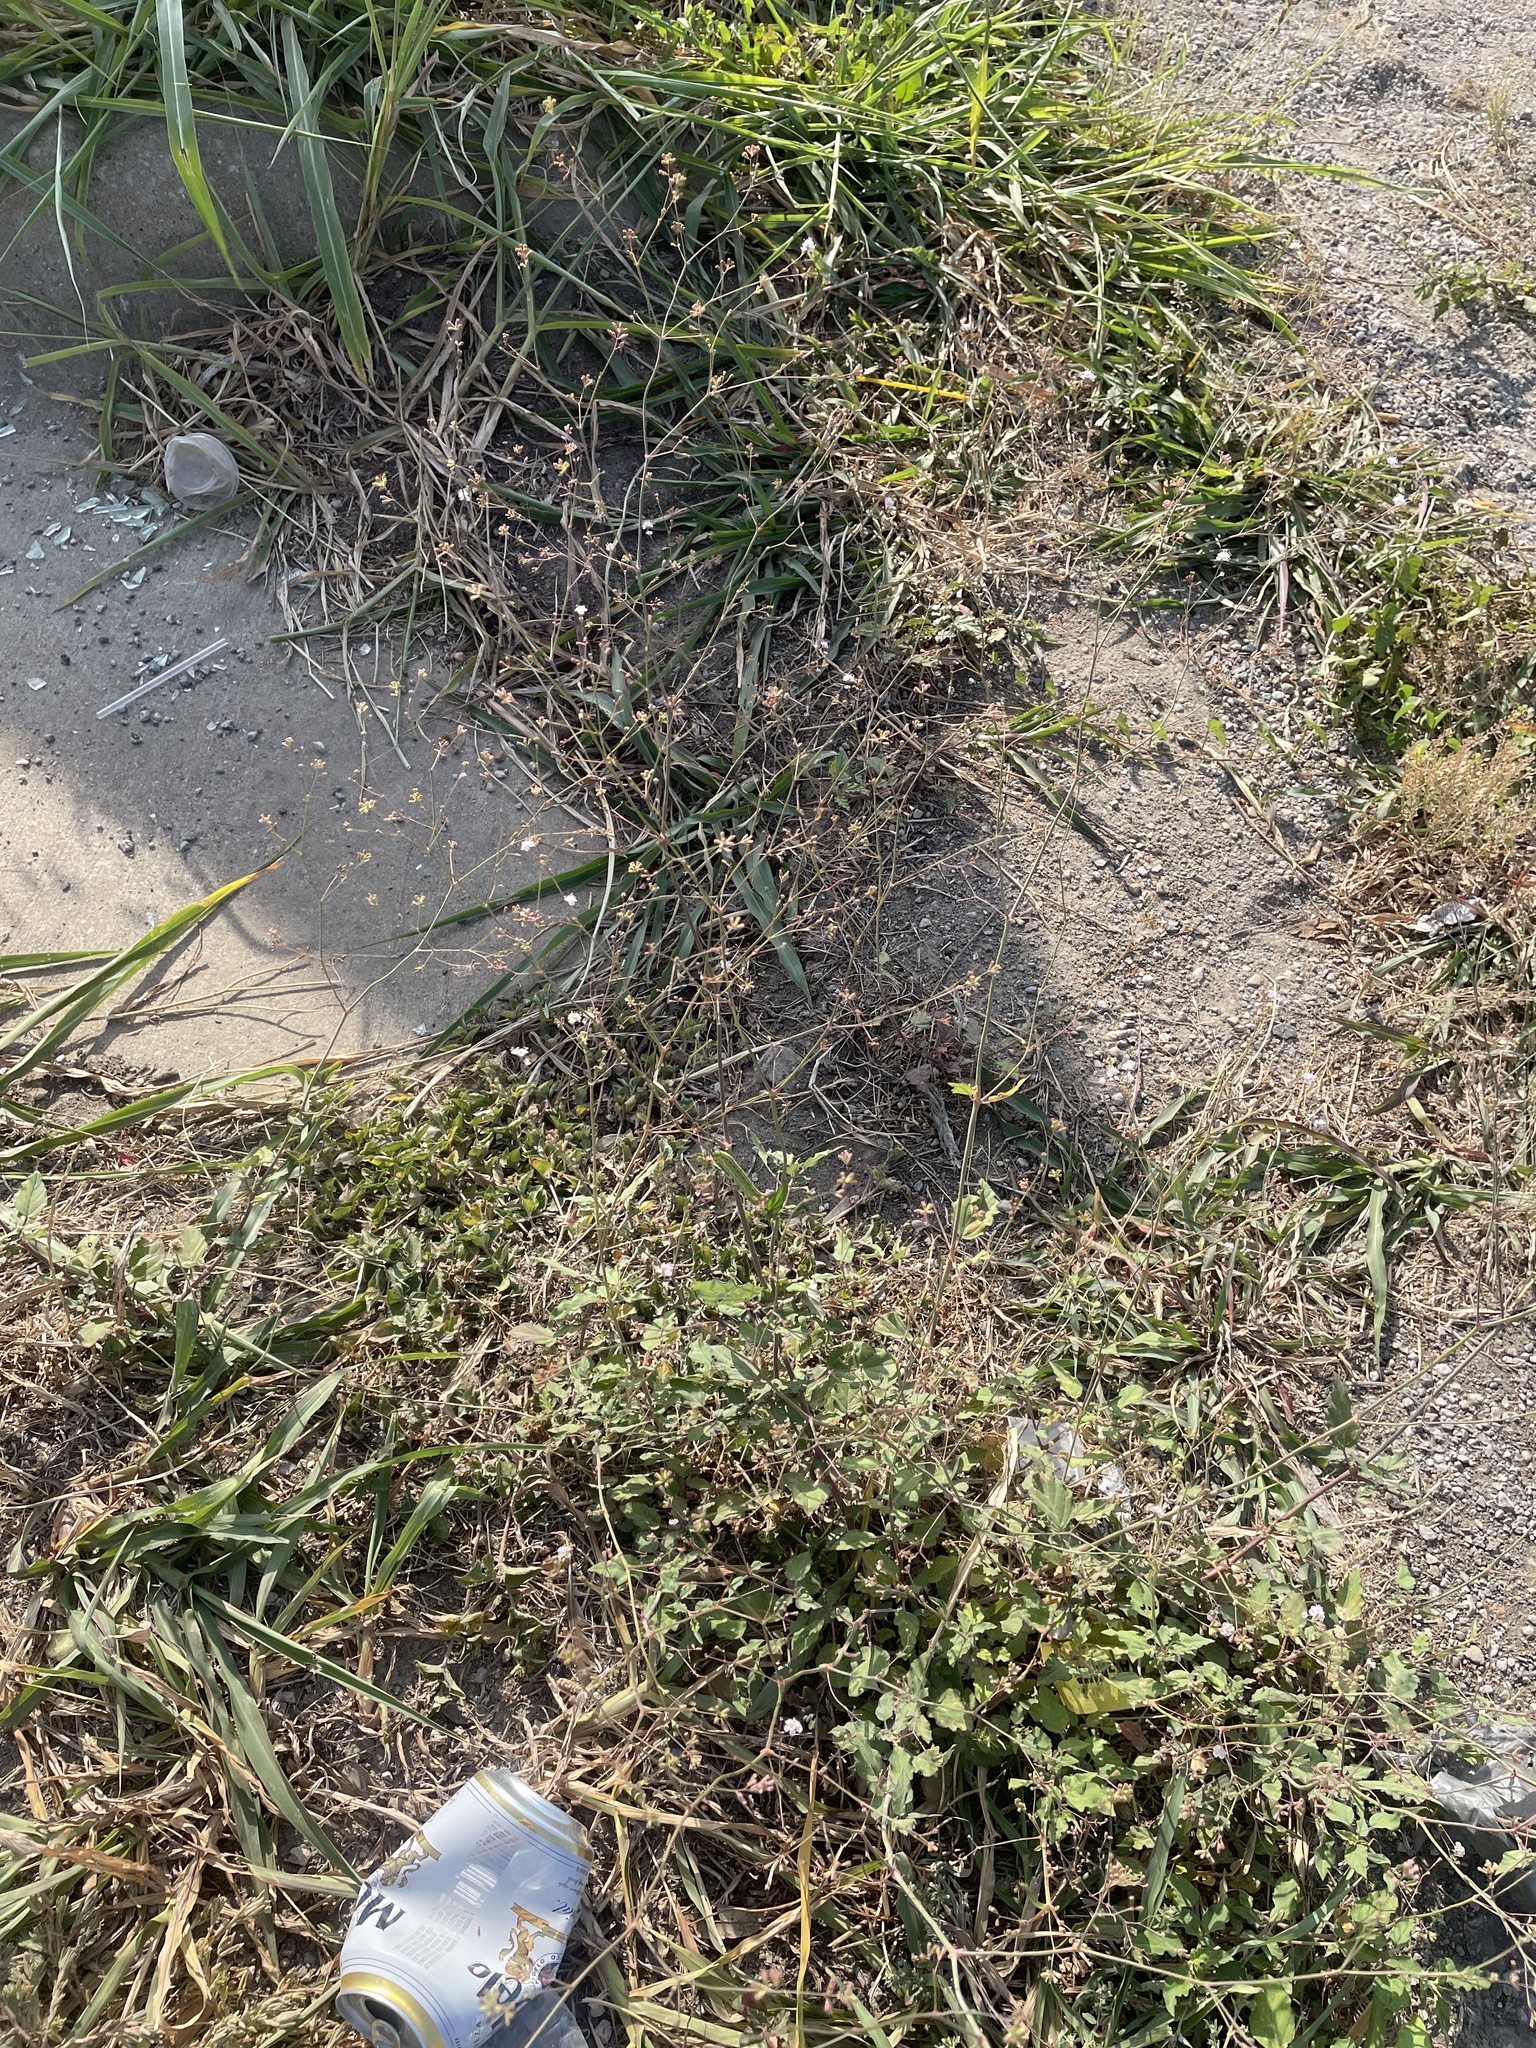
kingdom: Plantae
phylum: Tracheophyta
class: Magnoliopsida
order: Caryophyllales
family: Nyctaginaceae
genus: Boerhavia
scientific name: Boerhavia erecta
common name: Erect spiderling
